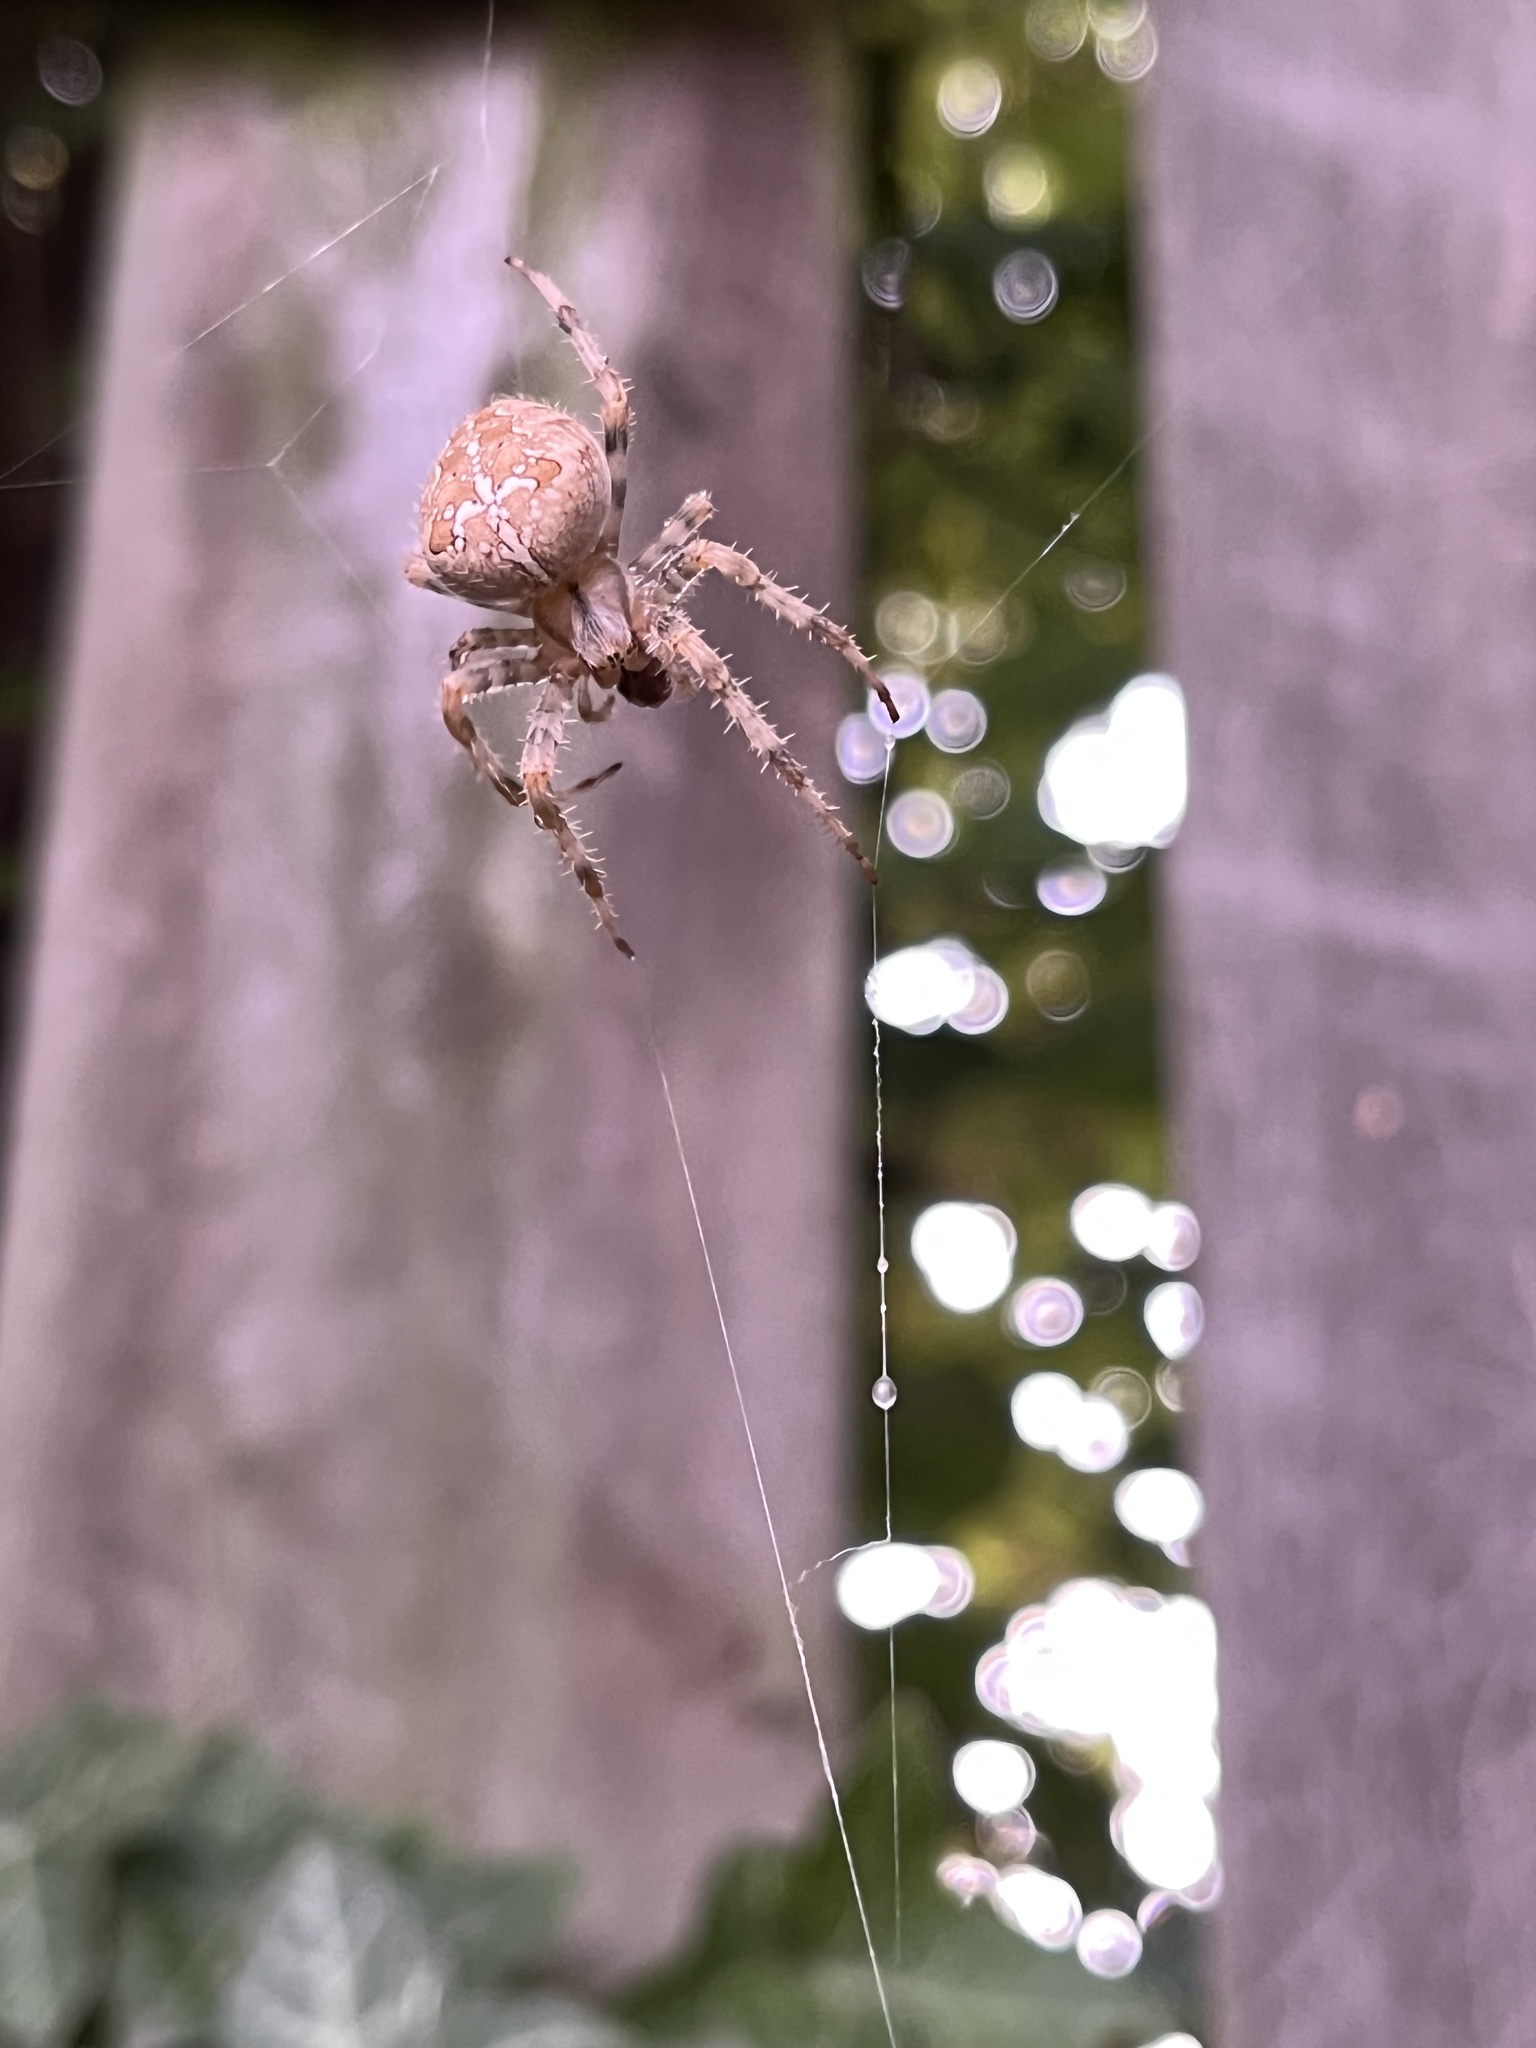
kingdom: Animalia
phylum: Arthropoda
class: Arachnida
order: Araneae
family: Araneidae
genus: Araneus
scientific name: Araneus diadematus
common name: Cross orbweaver
